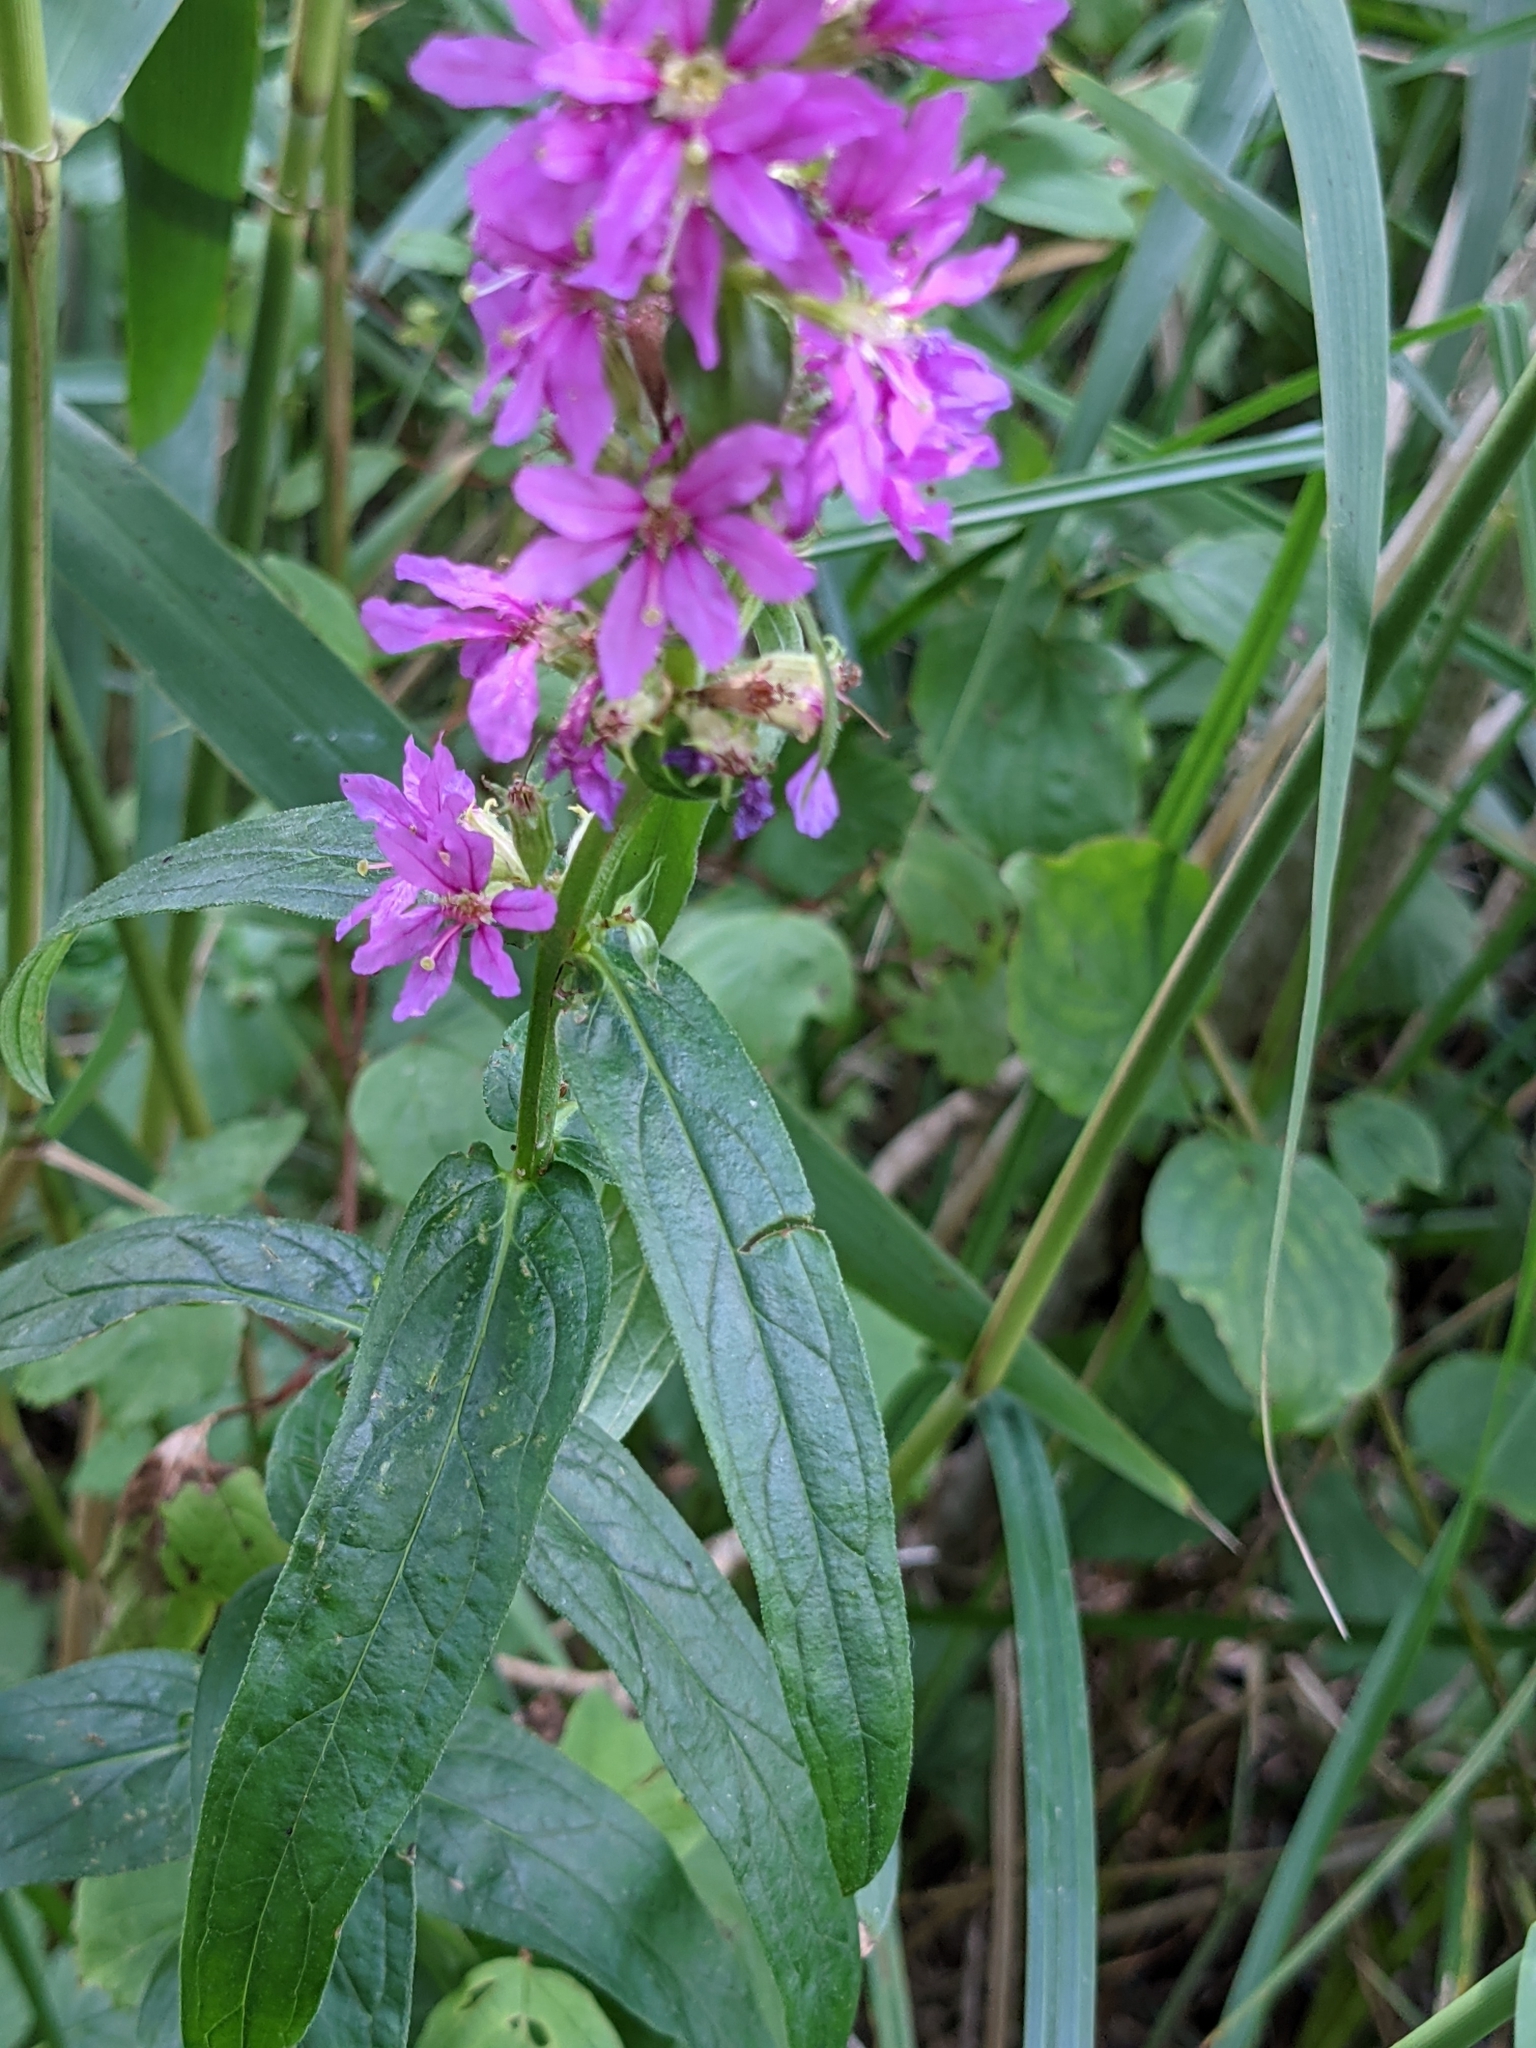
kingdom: Plantae
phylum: Tracheophyta
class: Magnoliopsida
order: Myrtales
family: Lythraceae
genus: Lythrum
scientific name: Lythrum salicaria
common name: Purple loosestrife
